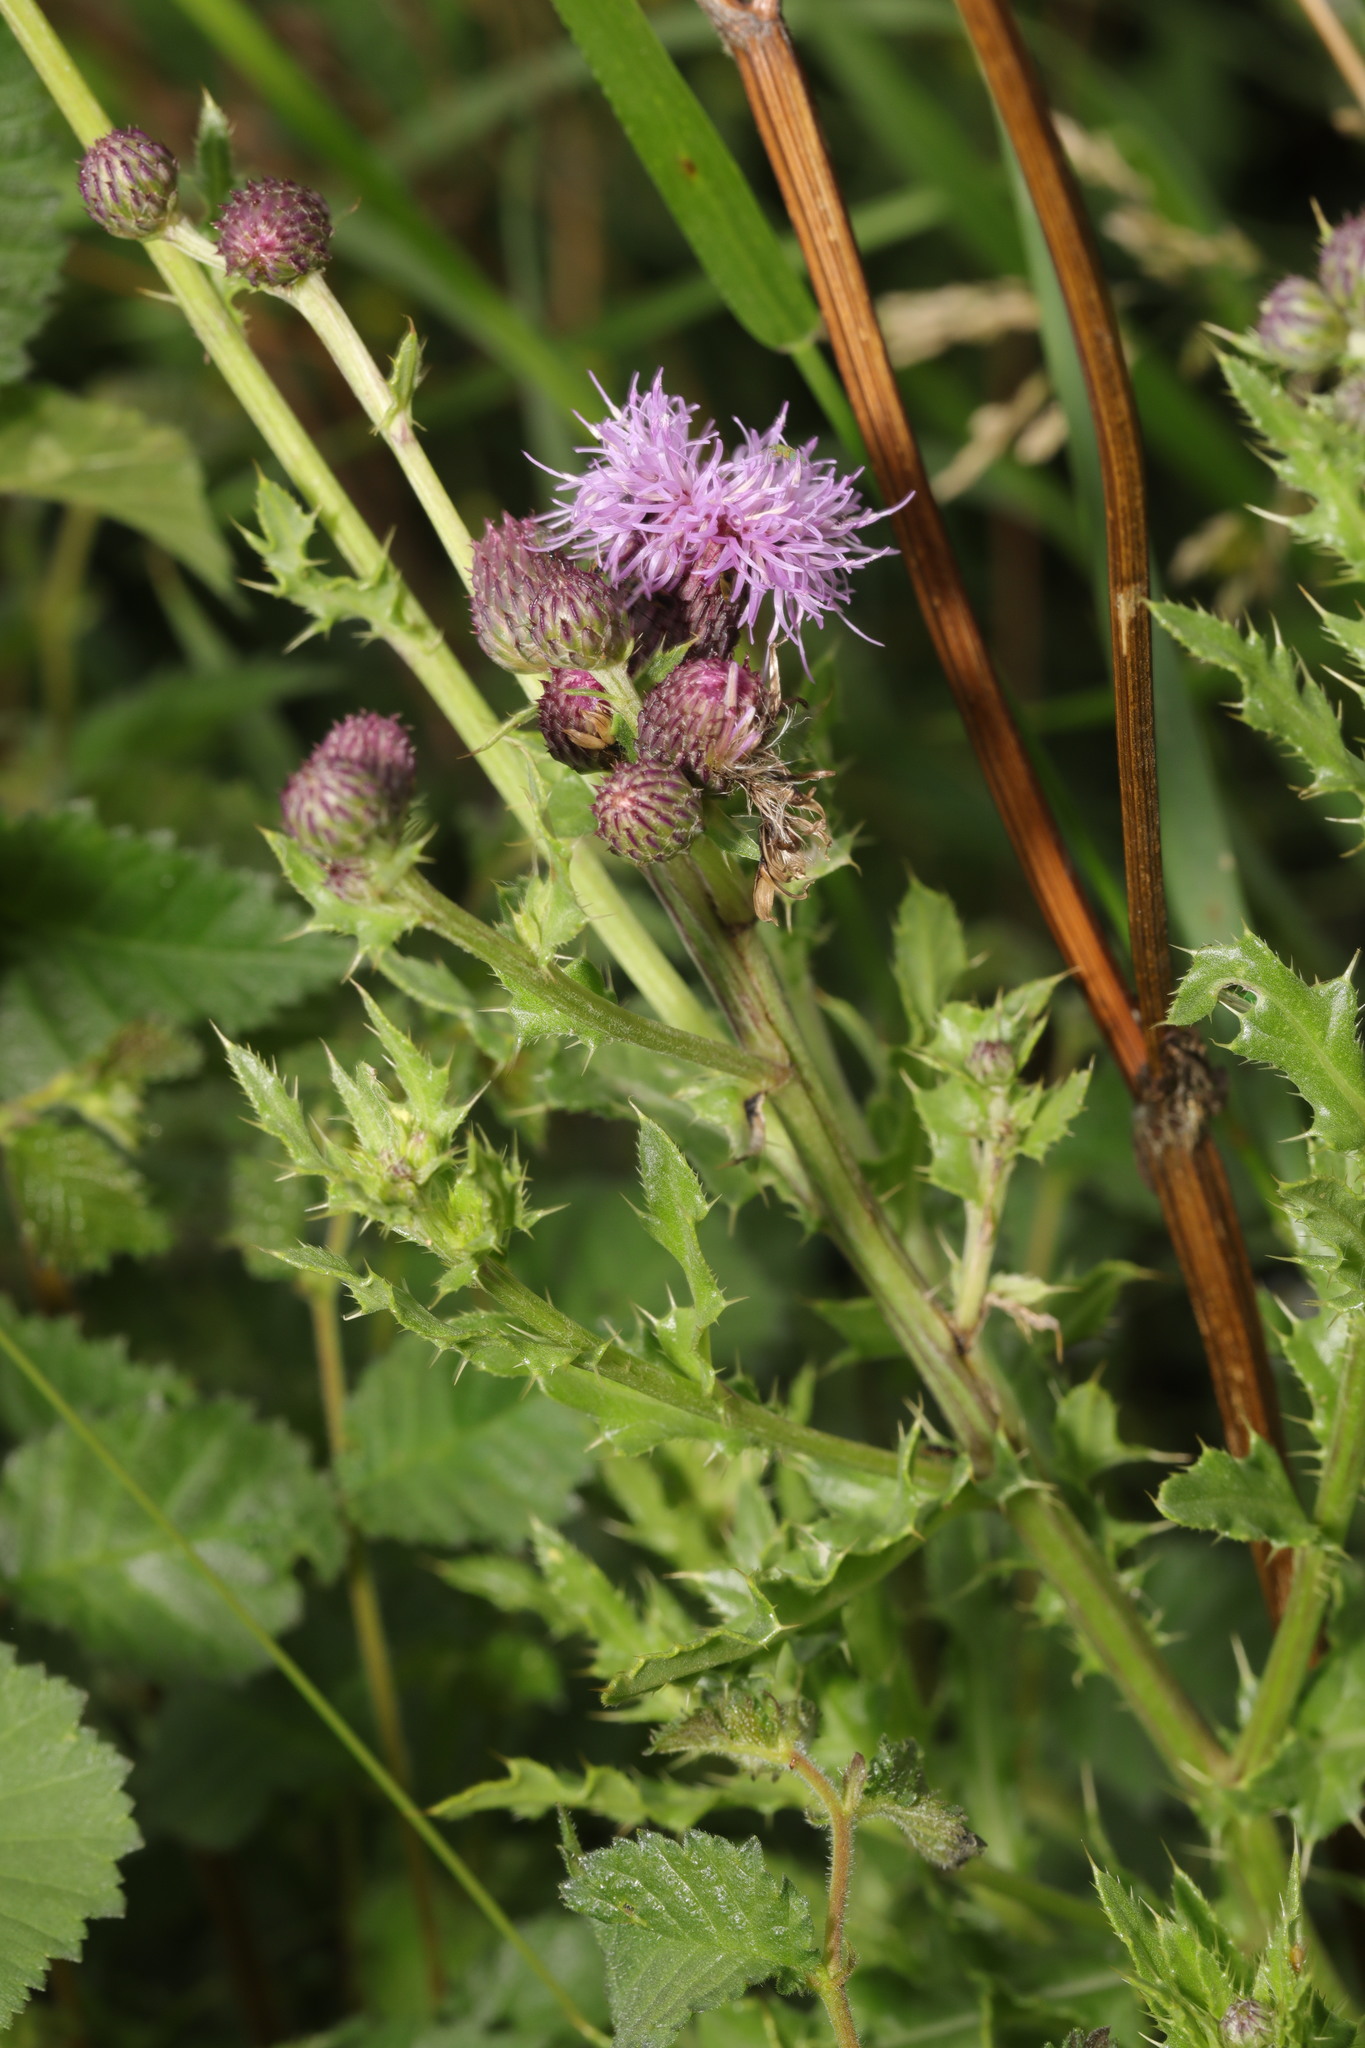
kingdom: Plantae
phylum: Tracheophyta
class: Magnoliopsida
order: Asterales
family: Asteraceae
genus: Cirsium
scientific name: Cirsium arvense
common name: Creeping thistle
